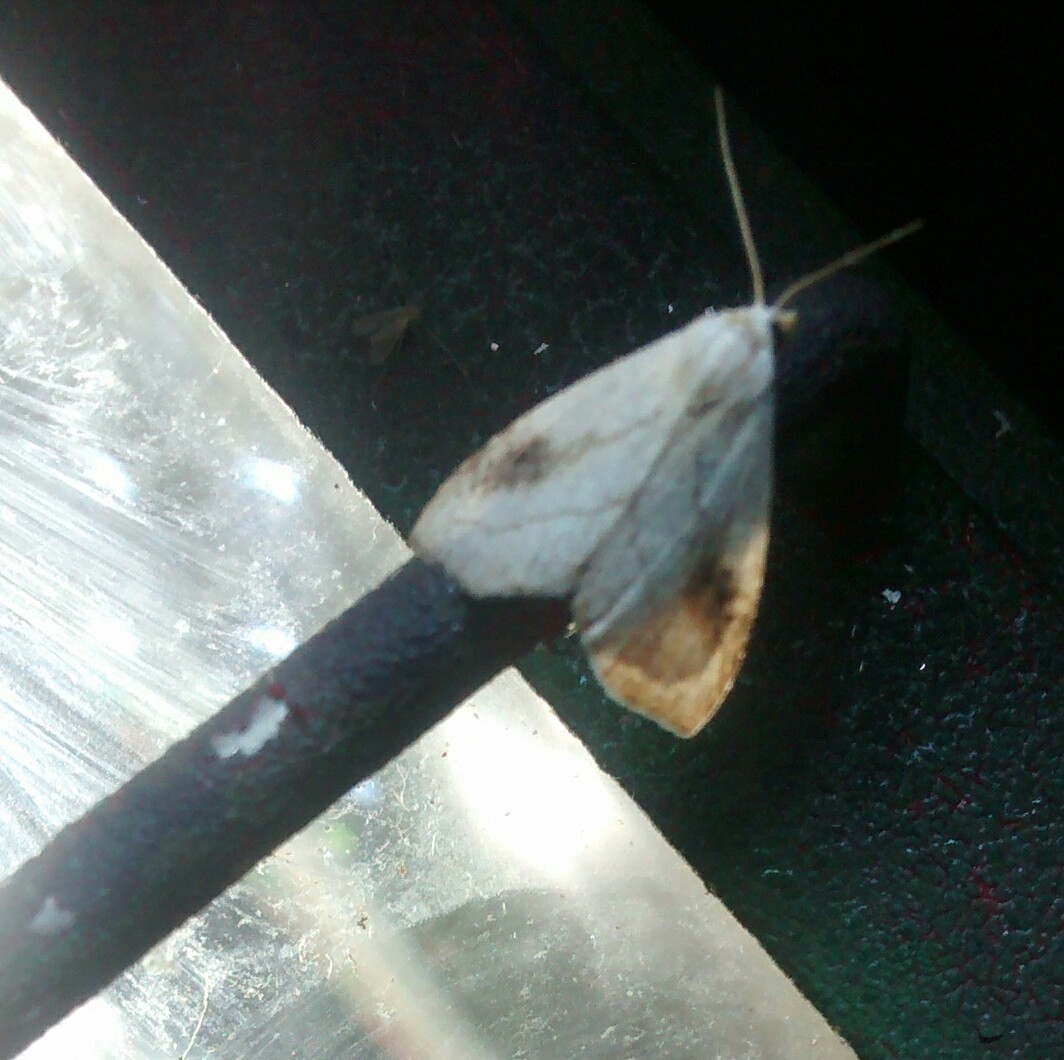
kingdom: Animalia
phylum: Arthropoda
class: Insecta
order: Lepidoptera
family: Erebidae
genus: Rivula
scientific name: Rivula propinqualis
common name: Spotted grass moth
